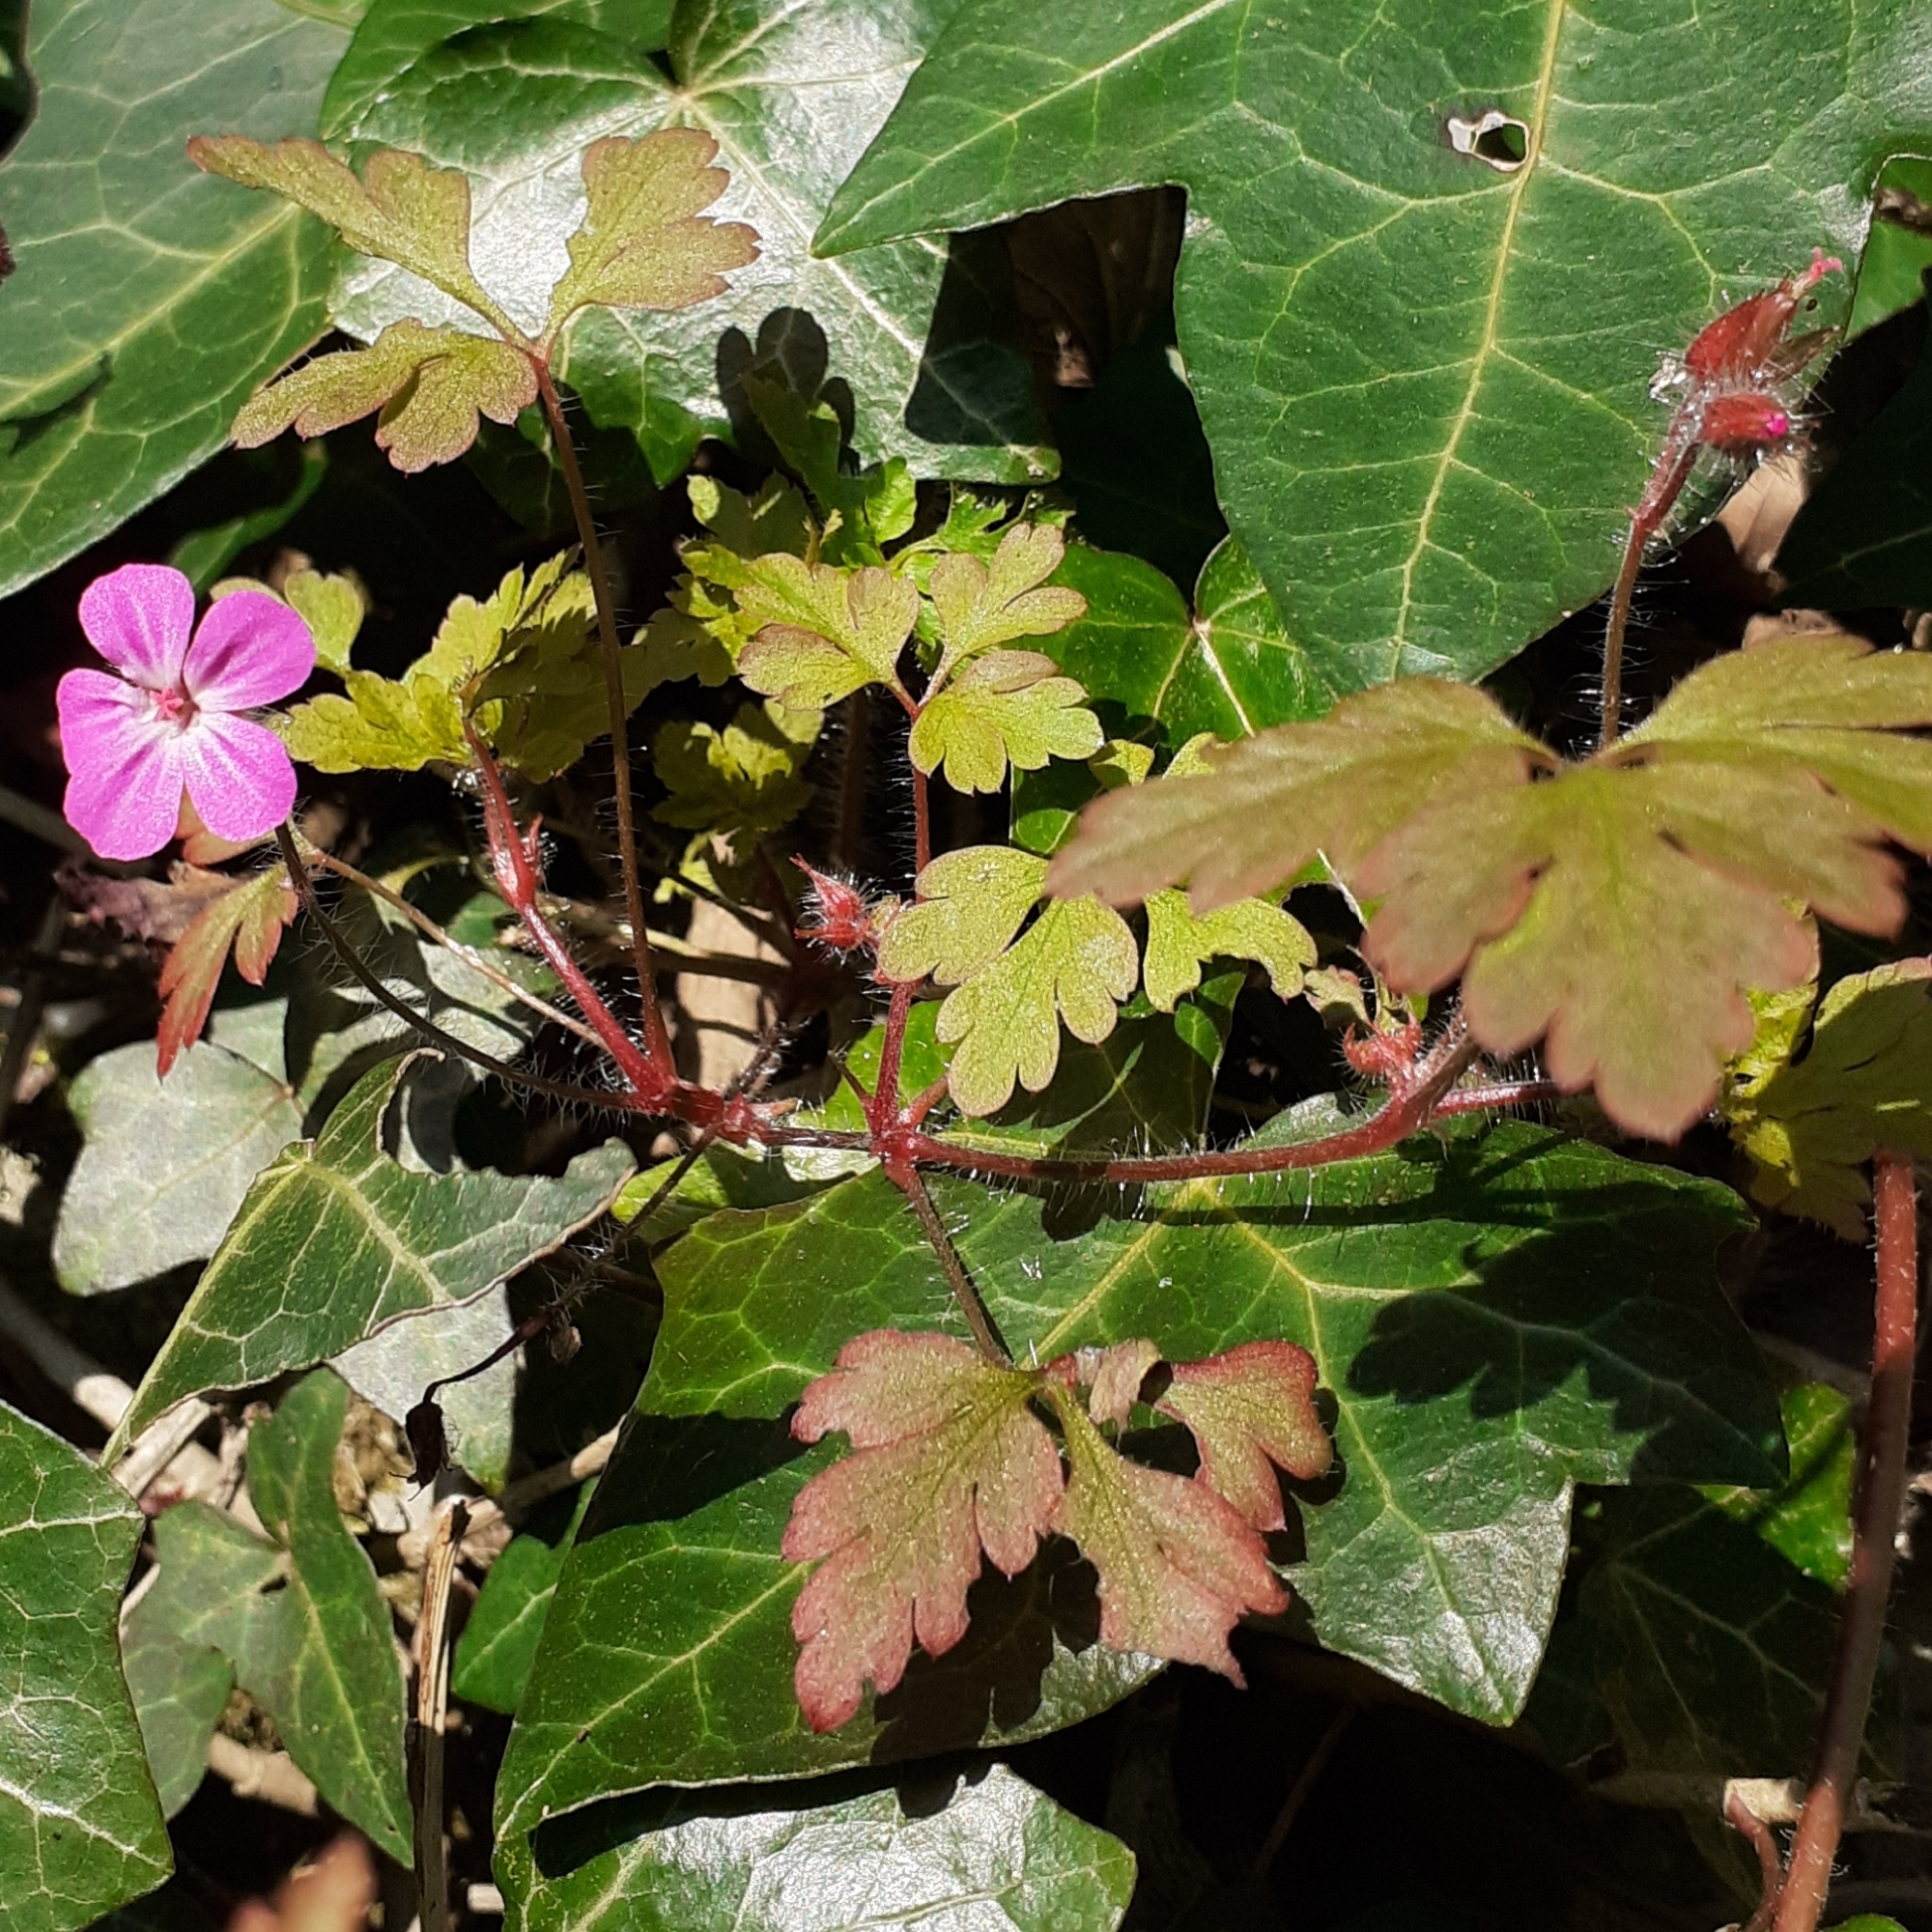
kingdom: Plantae
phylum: Tracheophyta
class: Magnoliopsida
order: Geraniales
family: Geraniaceae
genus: Geranium
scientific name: Geranium robertianum
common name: Herb-robert
